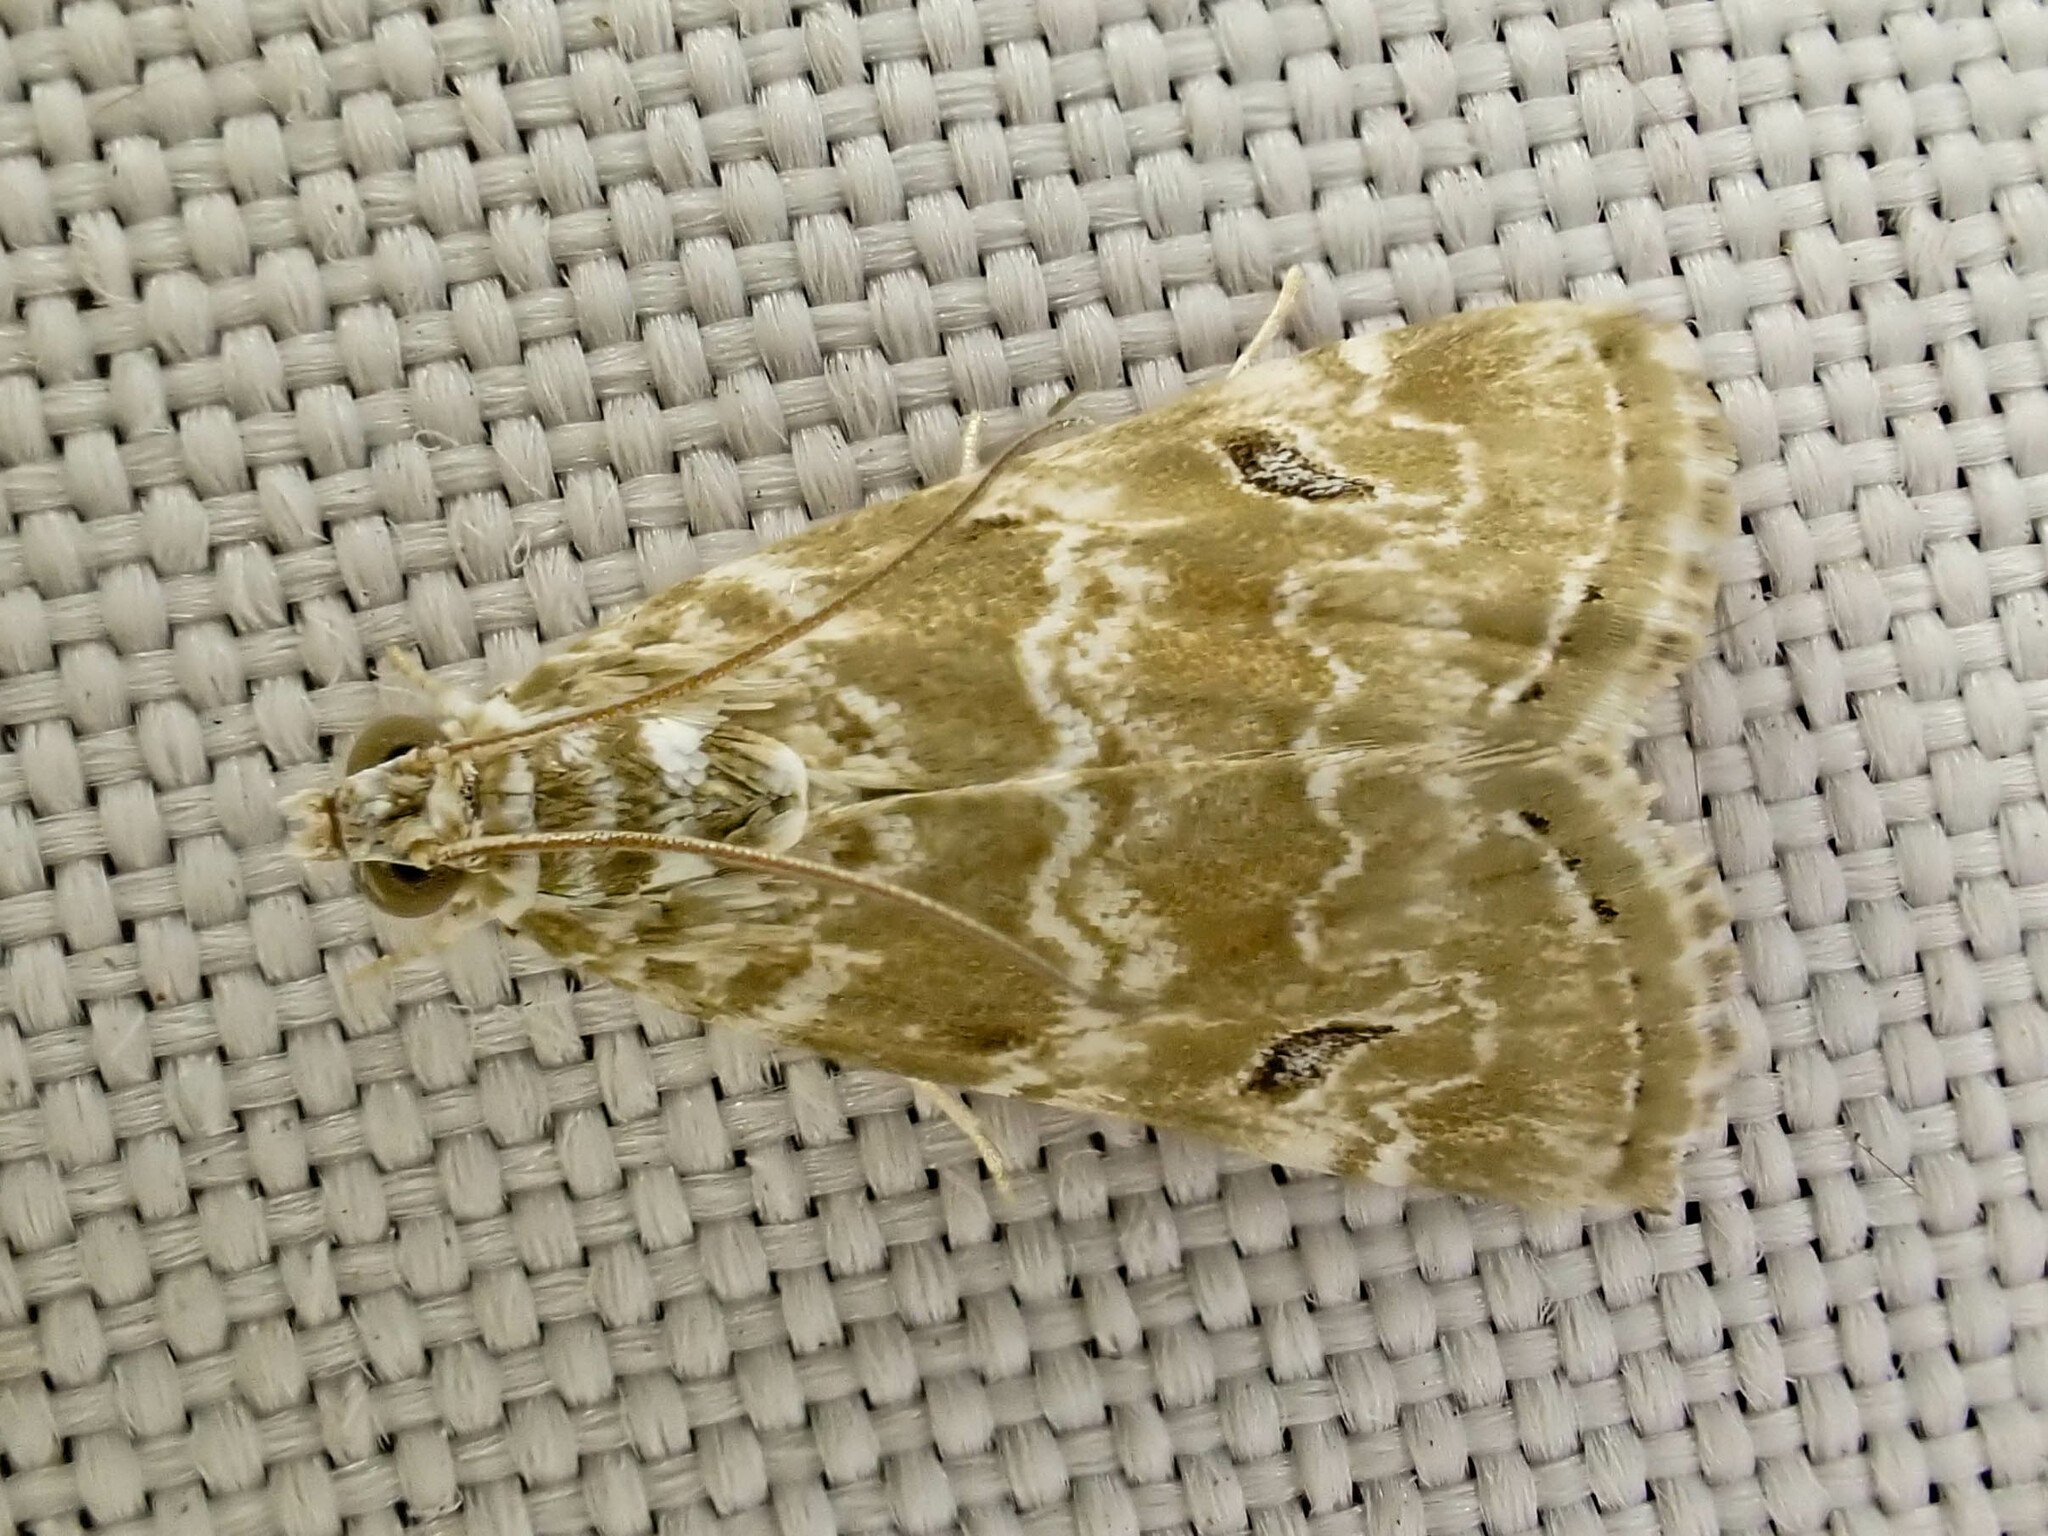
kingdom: Animalia
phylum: Arthropoda
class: Insecta
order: Lepidoptera
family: Crambidae
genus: Hellula
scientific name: Hellula rogatalis
